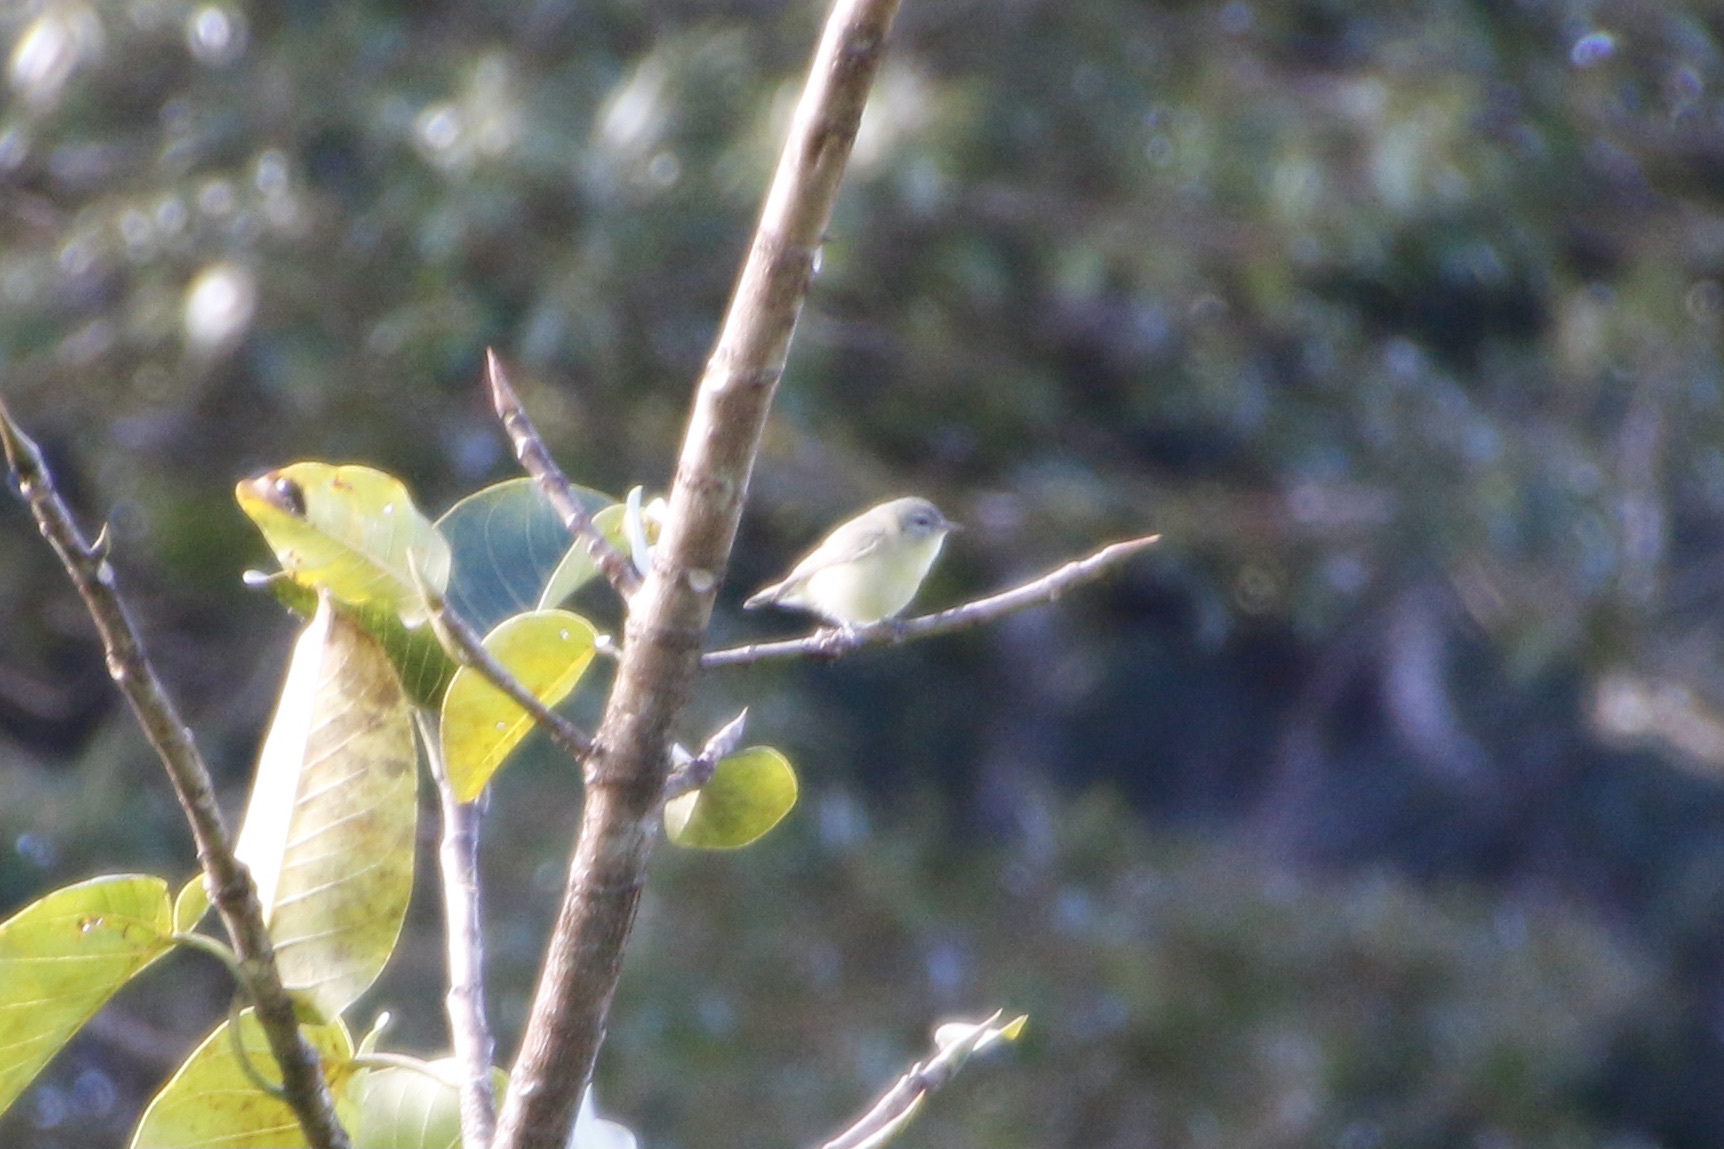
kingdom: Animalia
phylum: Chordata
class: Aves
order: Passeriformes
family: Vireonidae
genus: Vireo
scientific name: Vireo philadelphicus
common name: Philadelphia vireo
